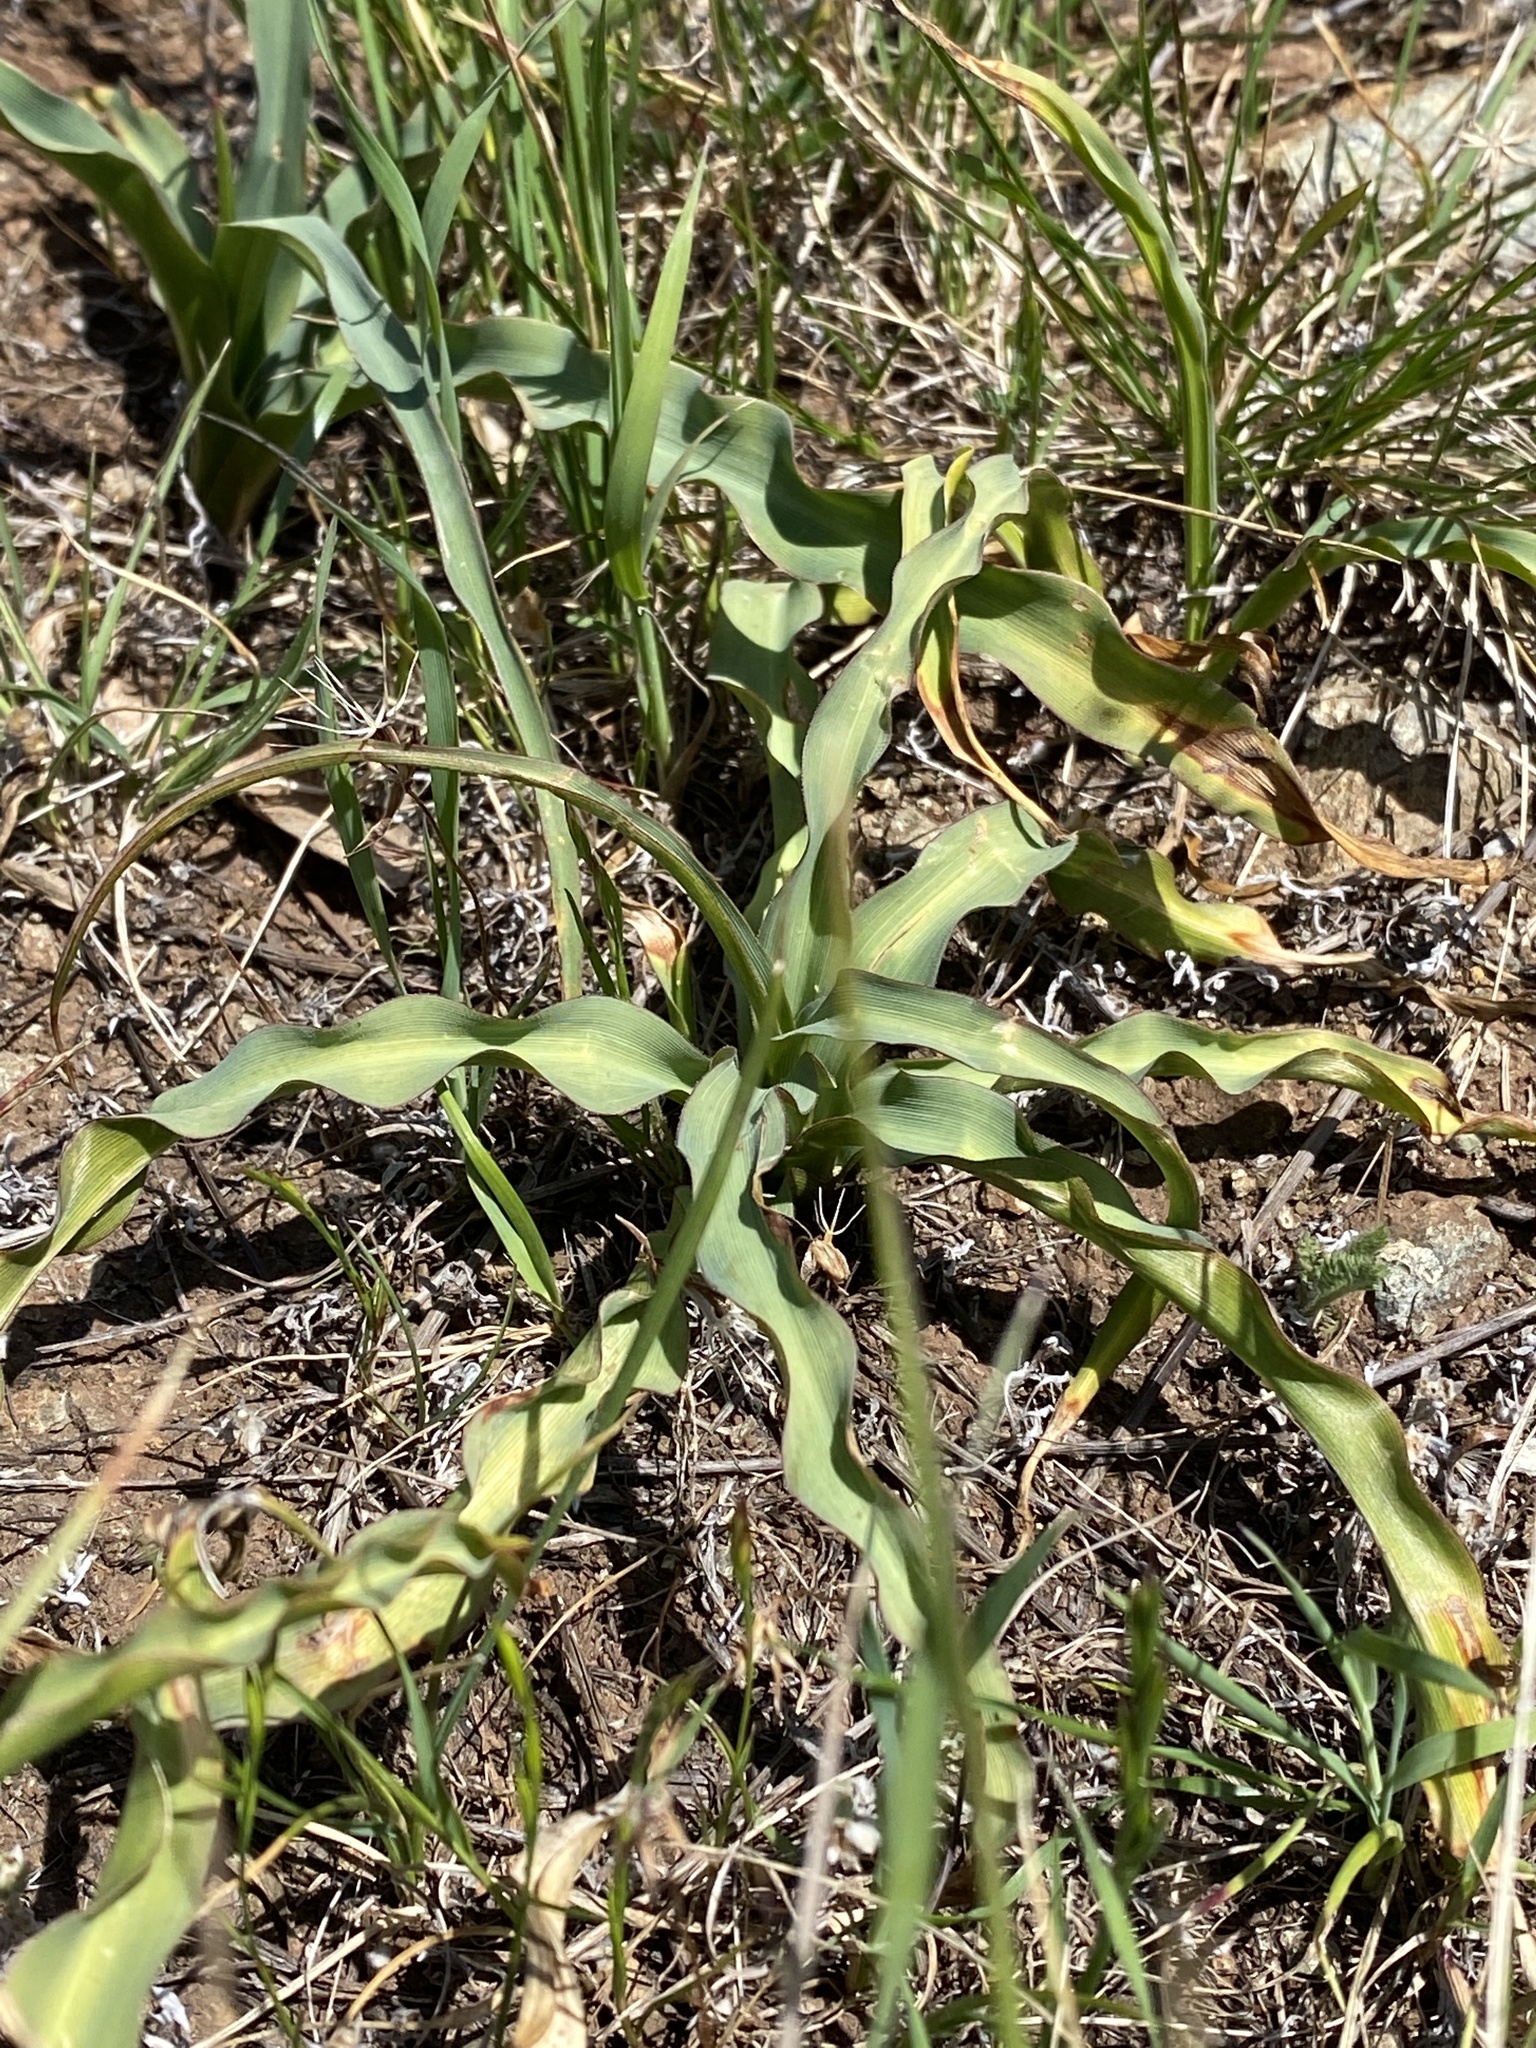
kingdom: Plantae
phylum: Tracheophyta
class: Liliopsida
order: Asparagales
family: Asparagaceae
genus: Chlorogalum
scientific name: Chlorogalum pomeridianum
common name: Amole
